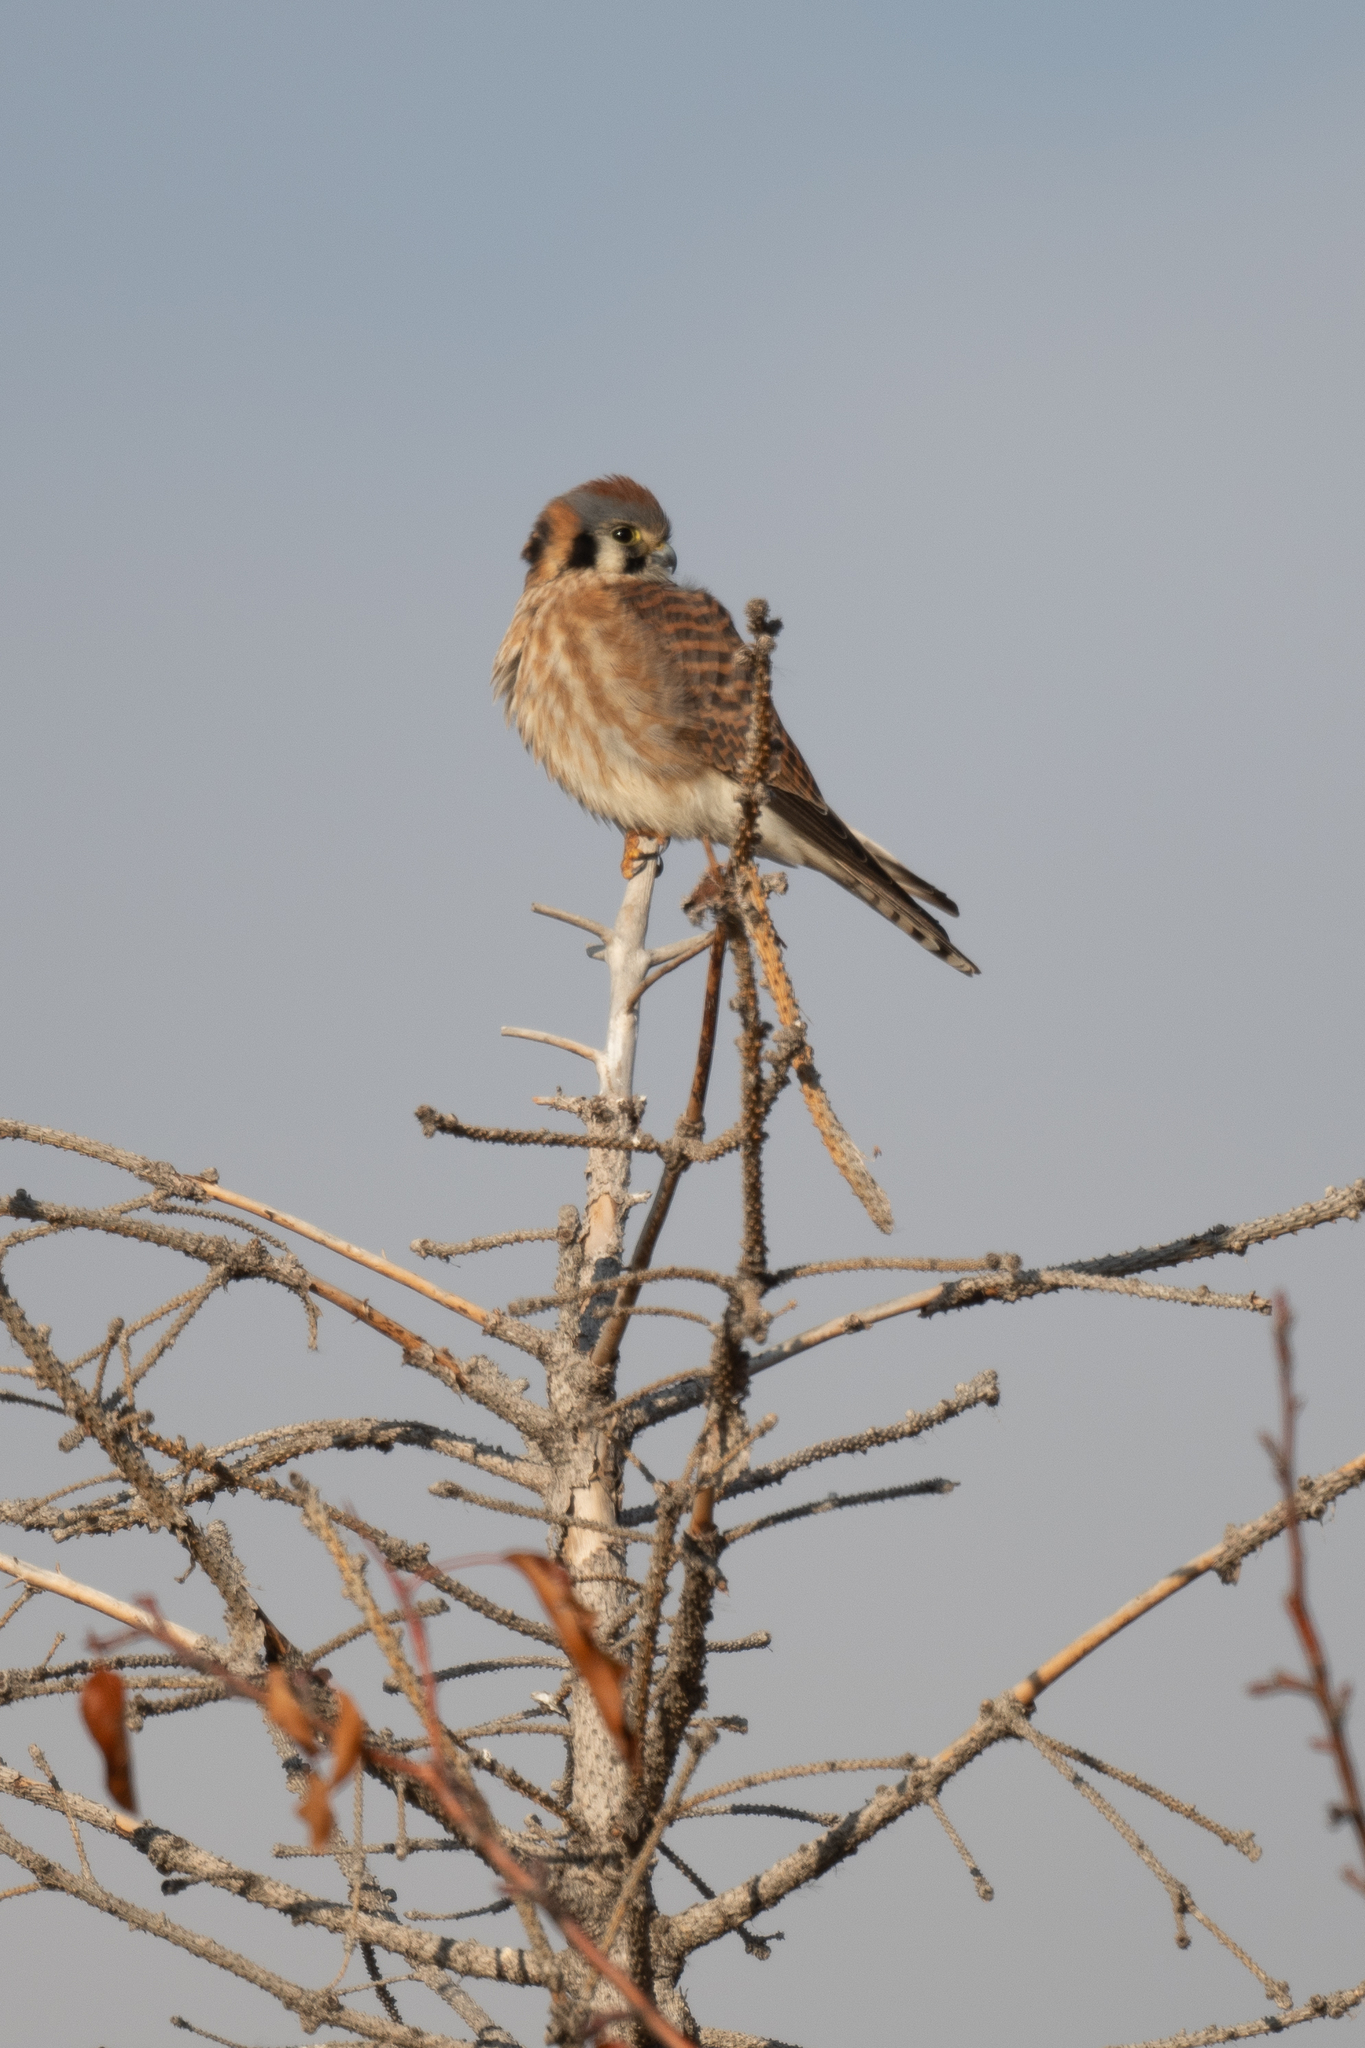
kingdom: Animalia
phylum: Chordata
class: Aves
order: Falconiformes
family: Falconidae
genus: Falco
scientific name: Falco sparverius
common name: American kestrel
